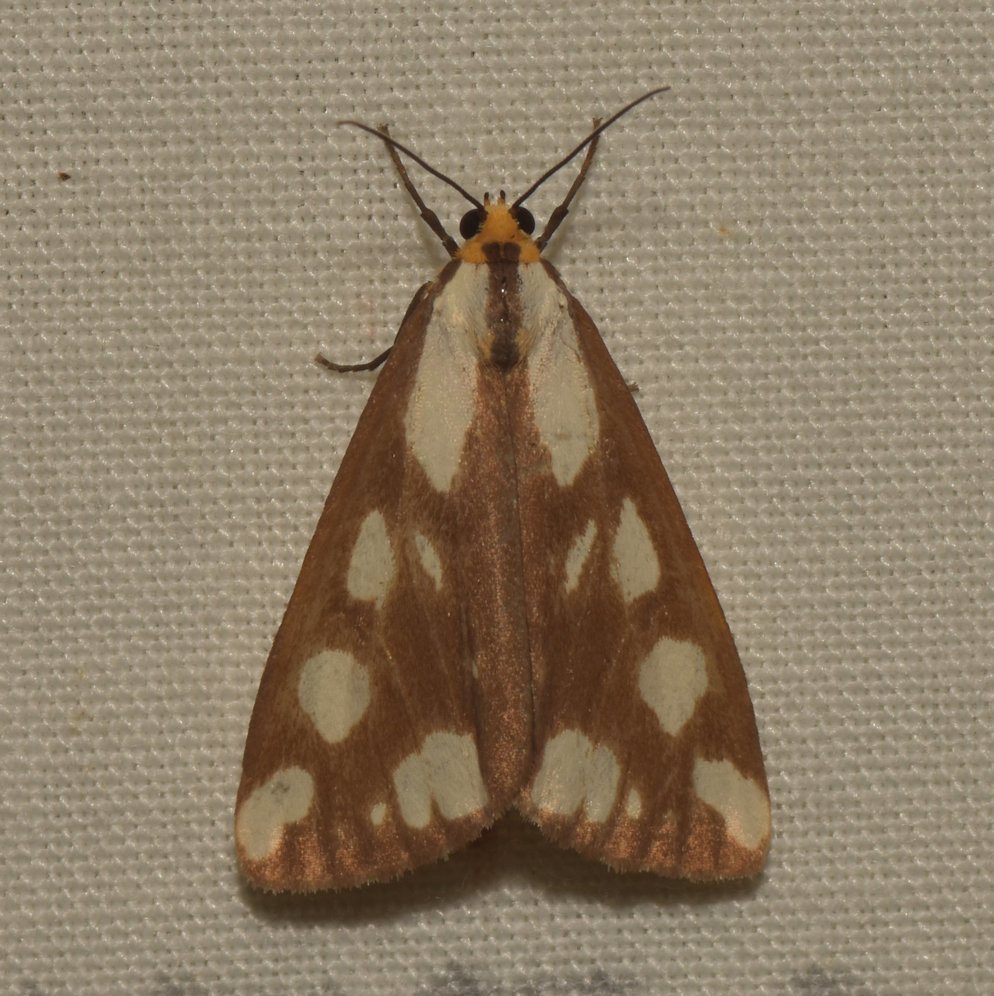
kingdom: Animalia
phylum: Arthropoda
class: Insecta
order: Lepidoptera
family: Erebidae
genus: Haploa
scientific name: Haploa confusa
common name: Confused haploa moth
